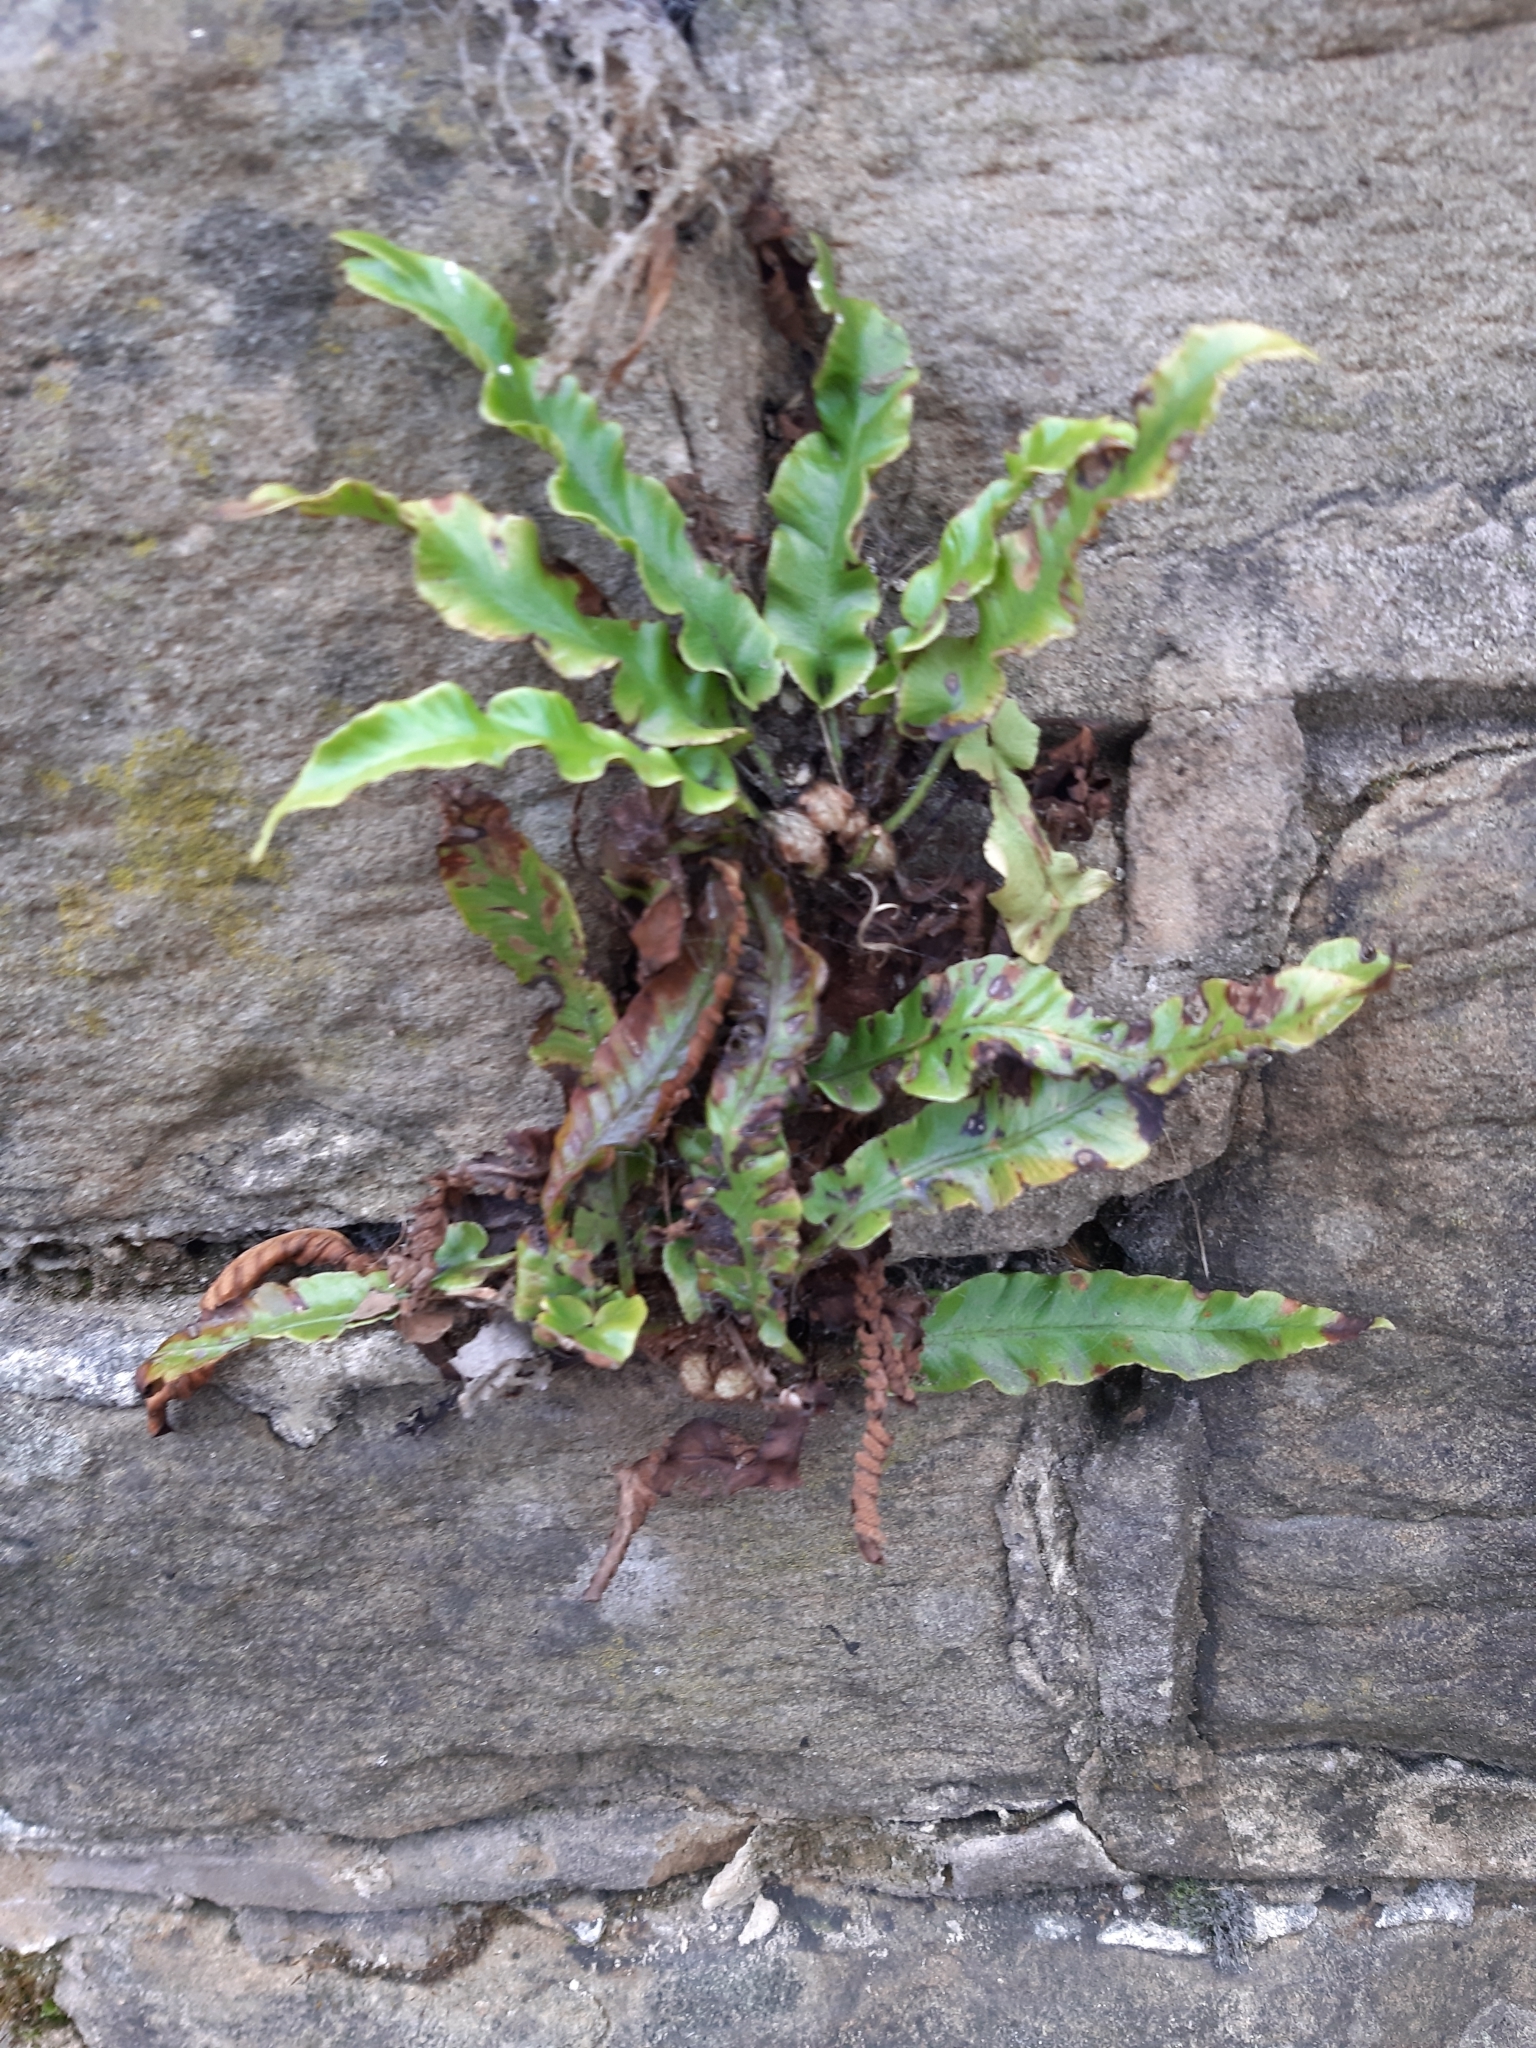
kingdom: Plantae
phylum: Tracheophyta
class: Polypodiopsida
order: Polypodiales
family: Aspleniaceae
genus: Asplenium
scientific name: Asplenium scolopendrium
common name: Hart's-tongue fern
